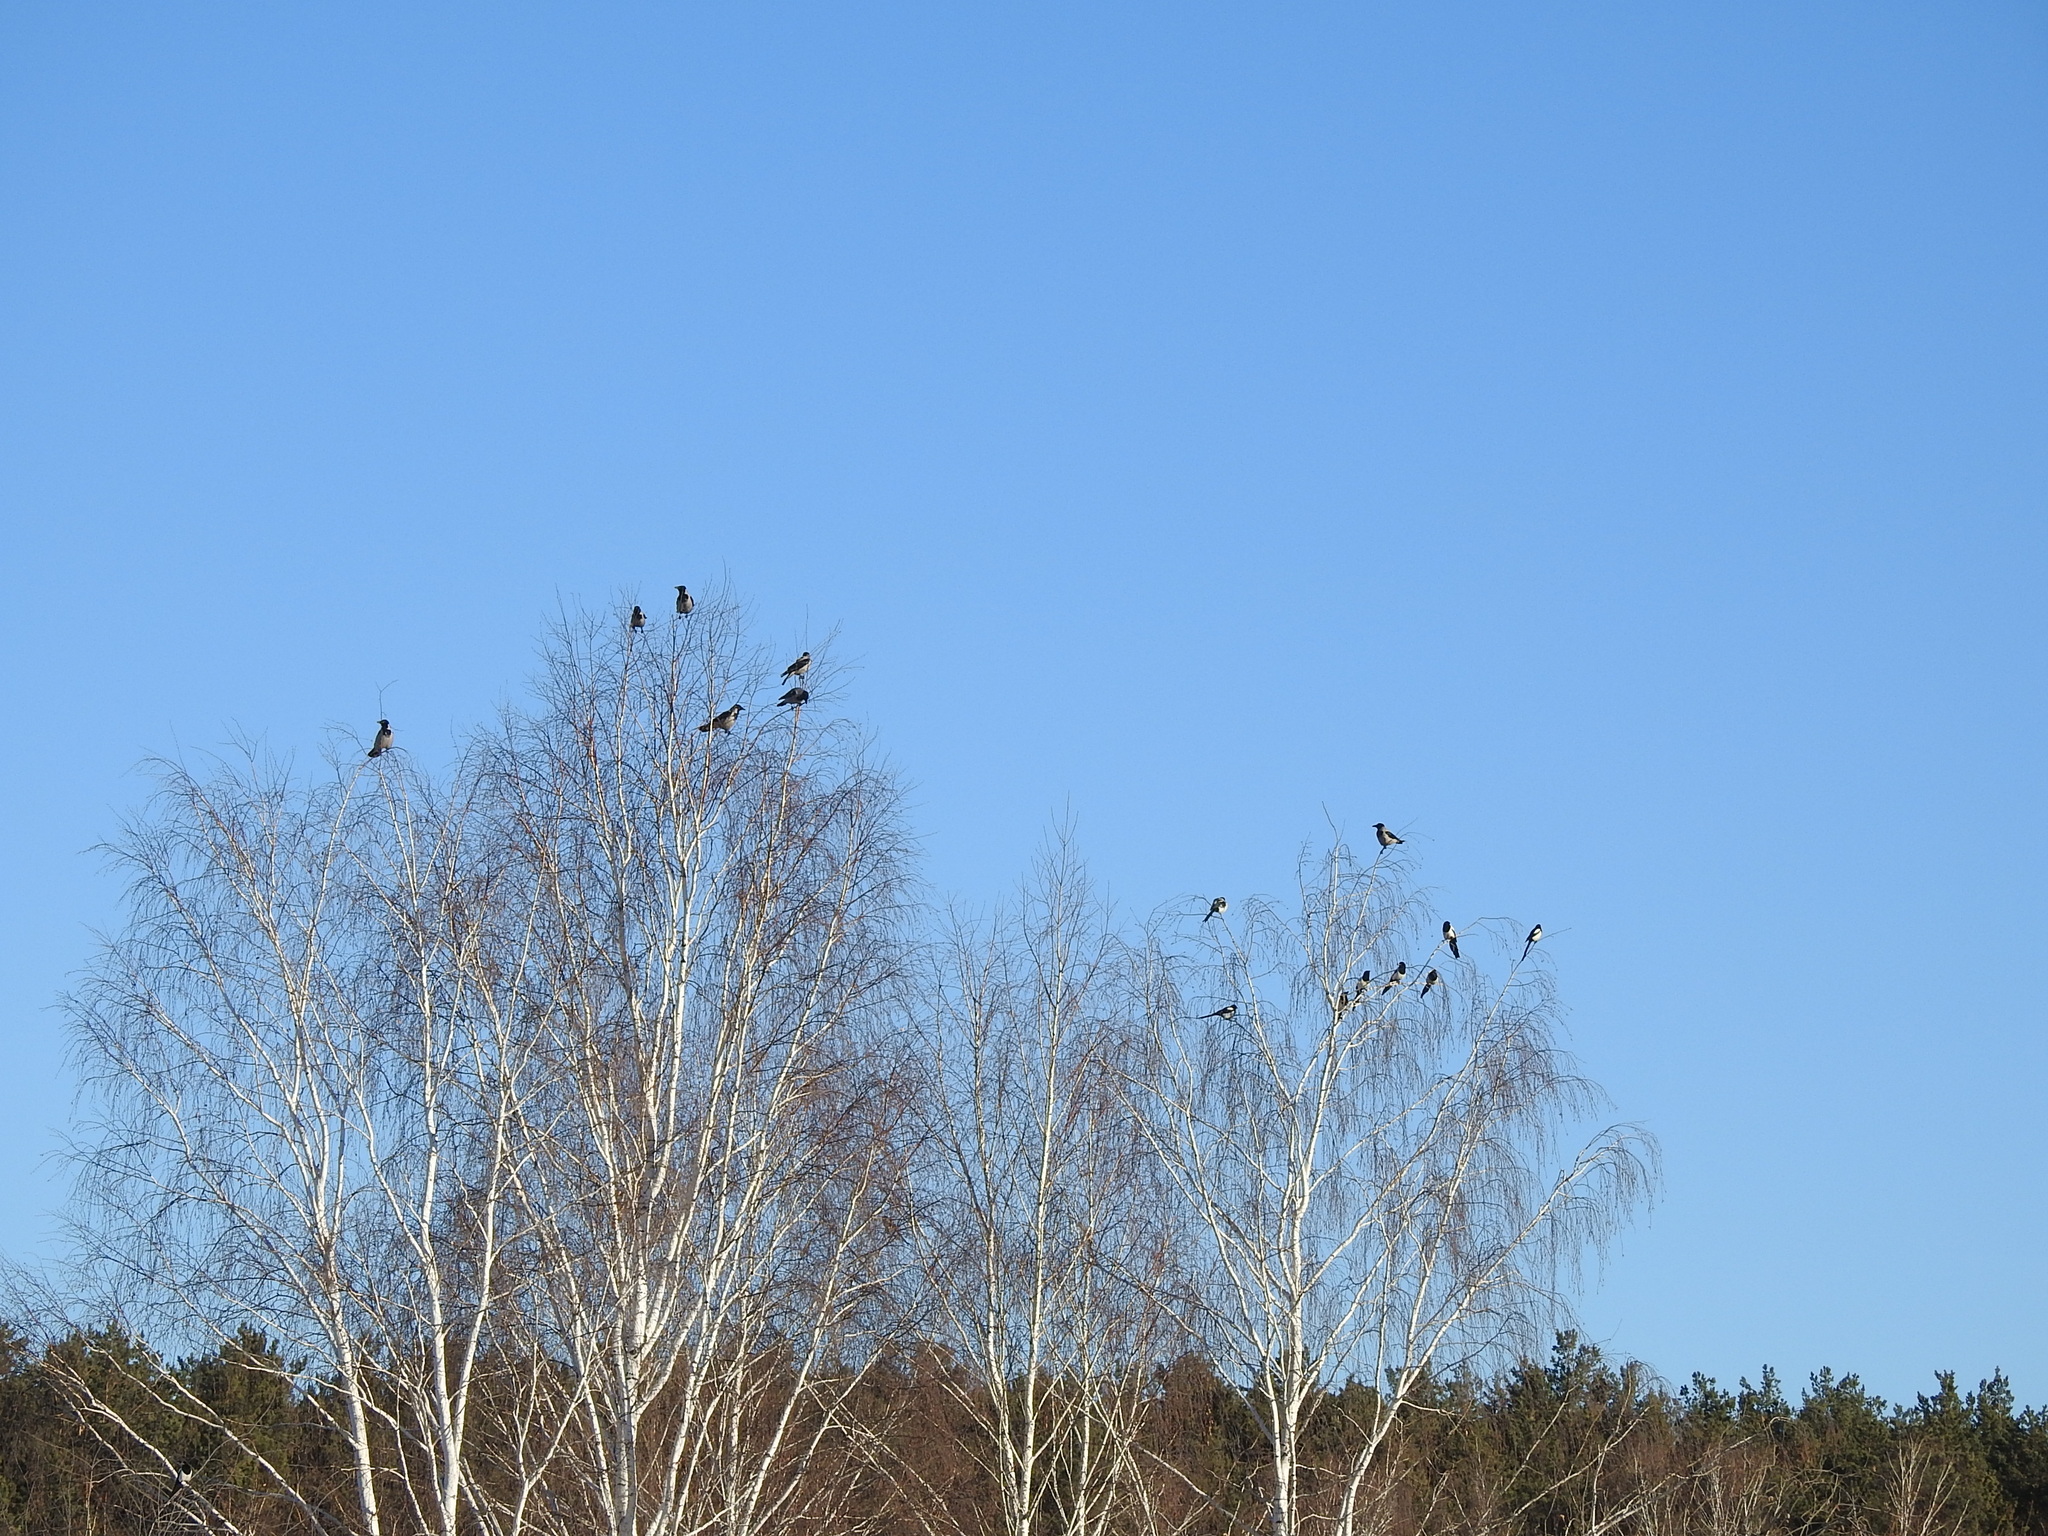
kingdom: Animalia
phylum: Chordata
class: Aves
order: Passeriformes
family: Corvidae
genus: Pica
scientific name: Pica pica
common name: Eurasian magpie
